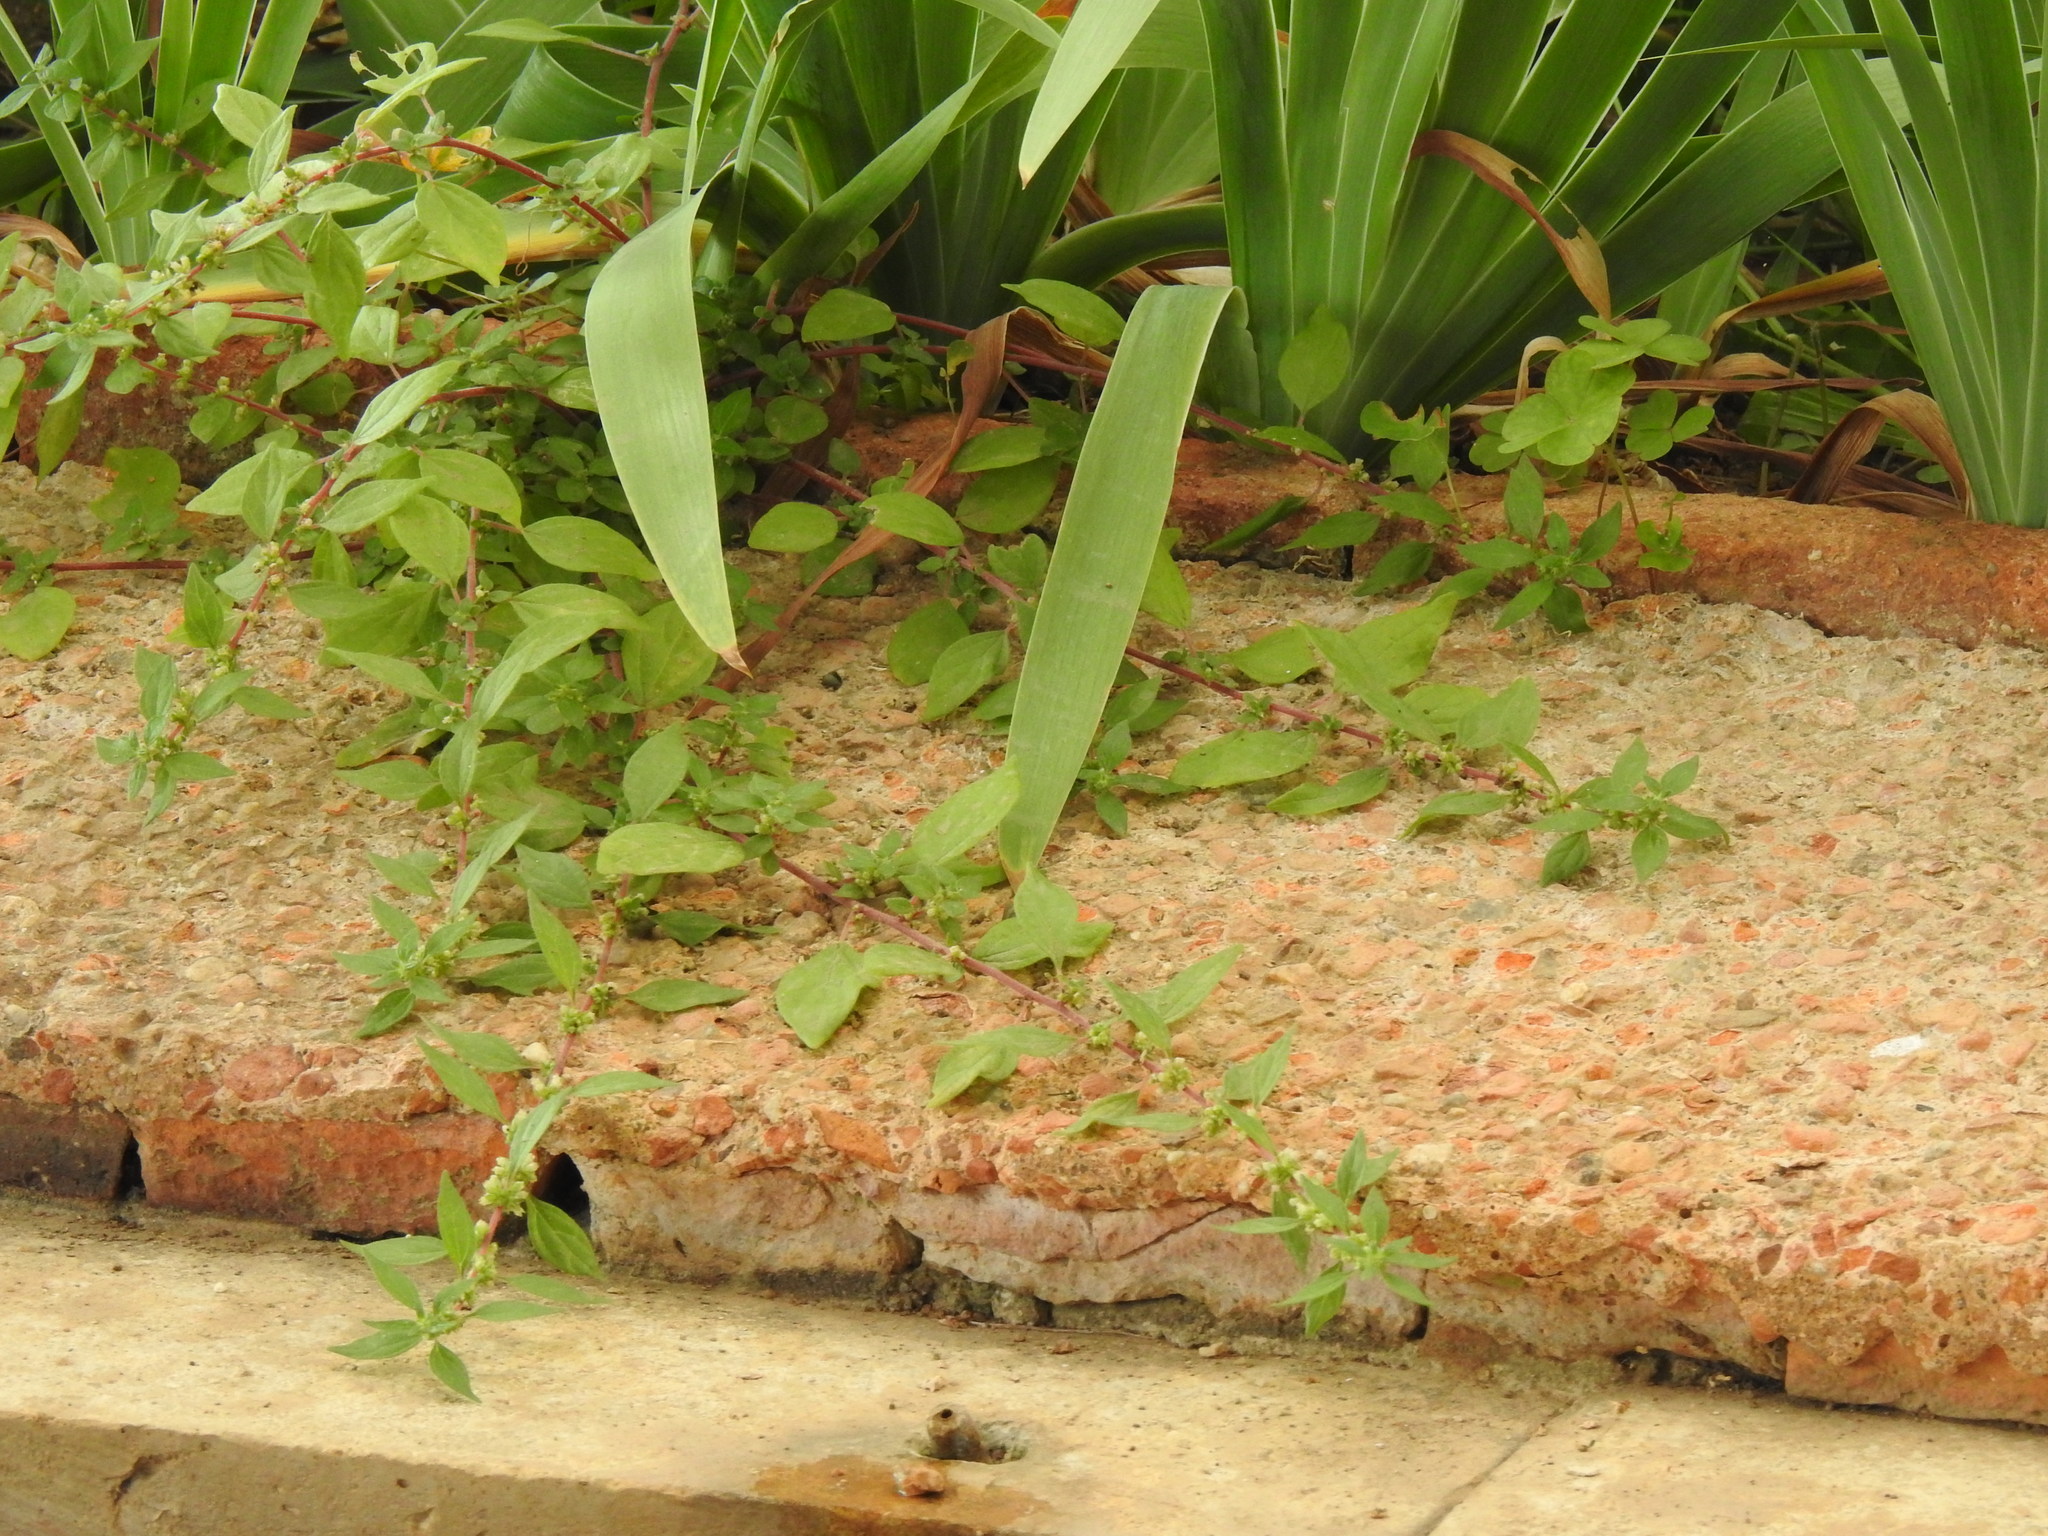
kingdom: Plantae
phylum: Tracheophyta
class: Magnoliopsida
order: Rosales
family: Urticaceae
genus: Parietaria
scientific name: Parietaria judaica
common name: Pellitory-of-the-wall
